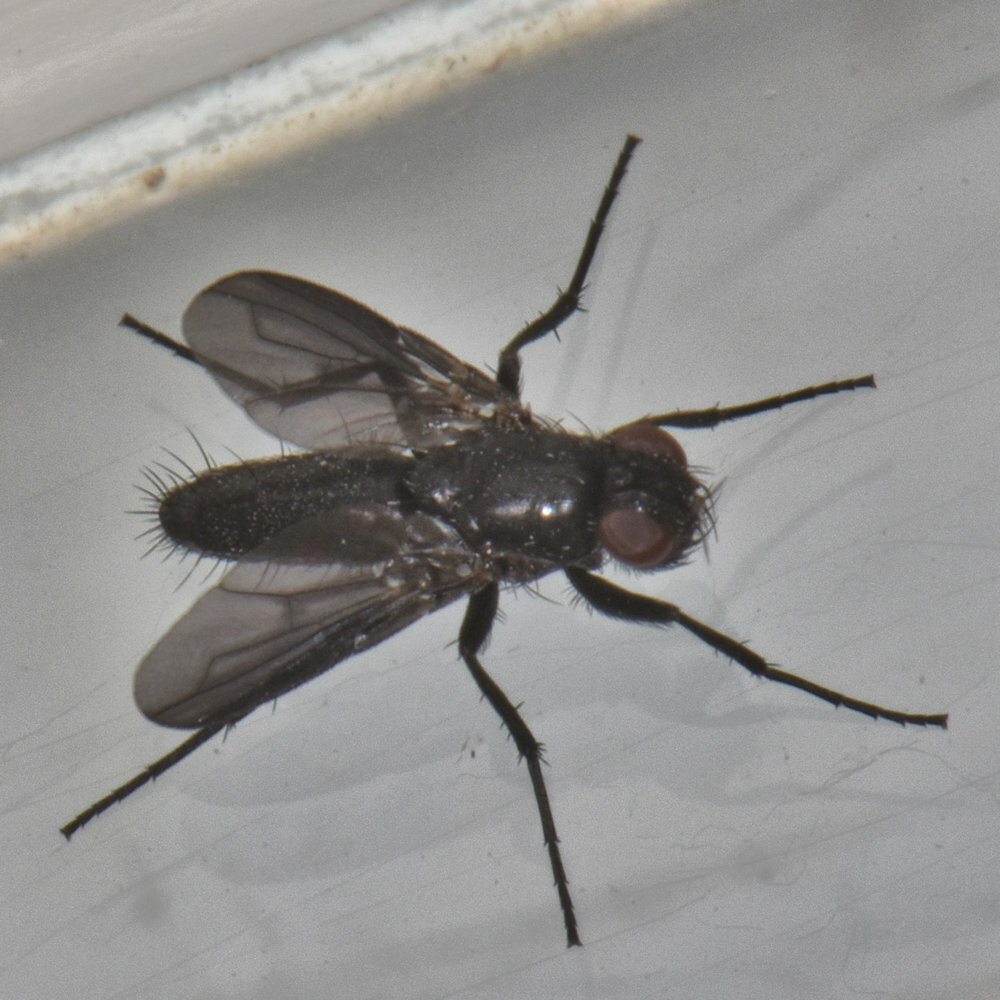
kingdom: Animalia
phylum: Arthropoda
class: Insecta
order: Diptera
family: Calliphoridae
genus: Melanophora
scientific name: Melanophora roralis
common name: Smoky-winged woodlouse-fly
